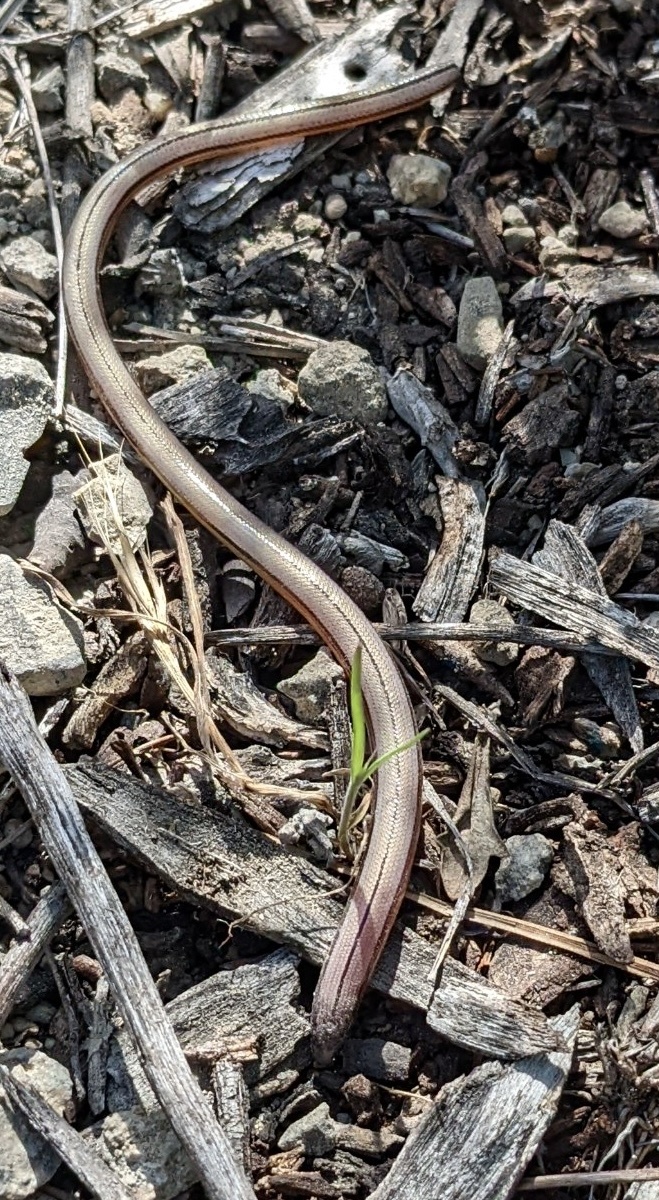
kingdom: Animalia
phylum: Chordata
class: Squamata
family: Anguidae
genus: Anniella
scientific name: Anniella stebbinsi
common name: Southern california legless lizard
